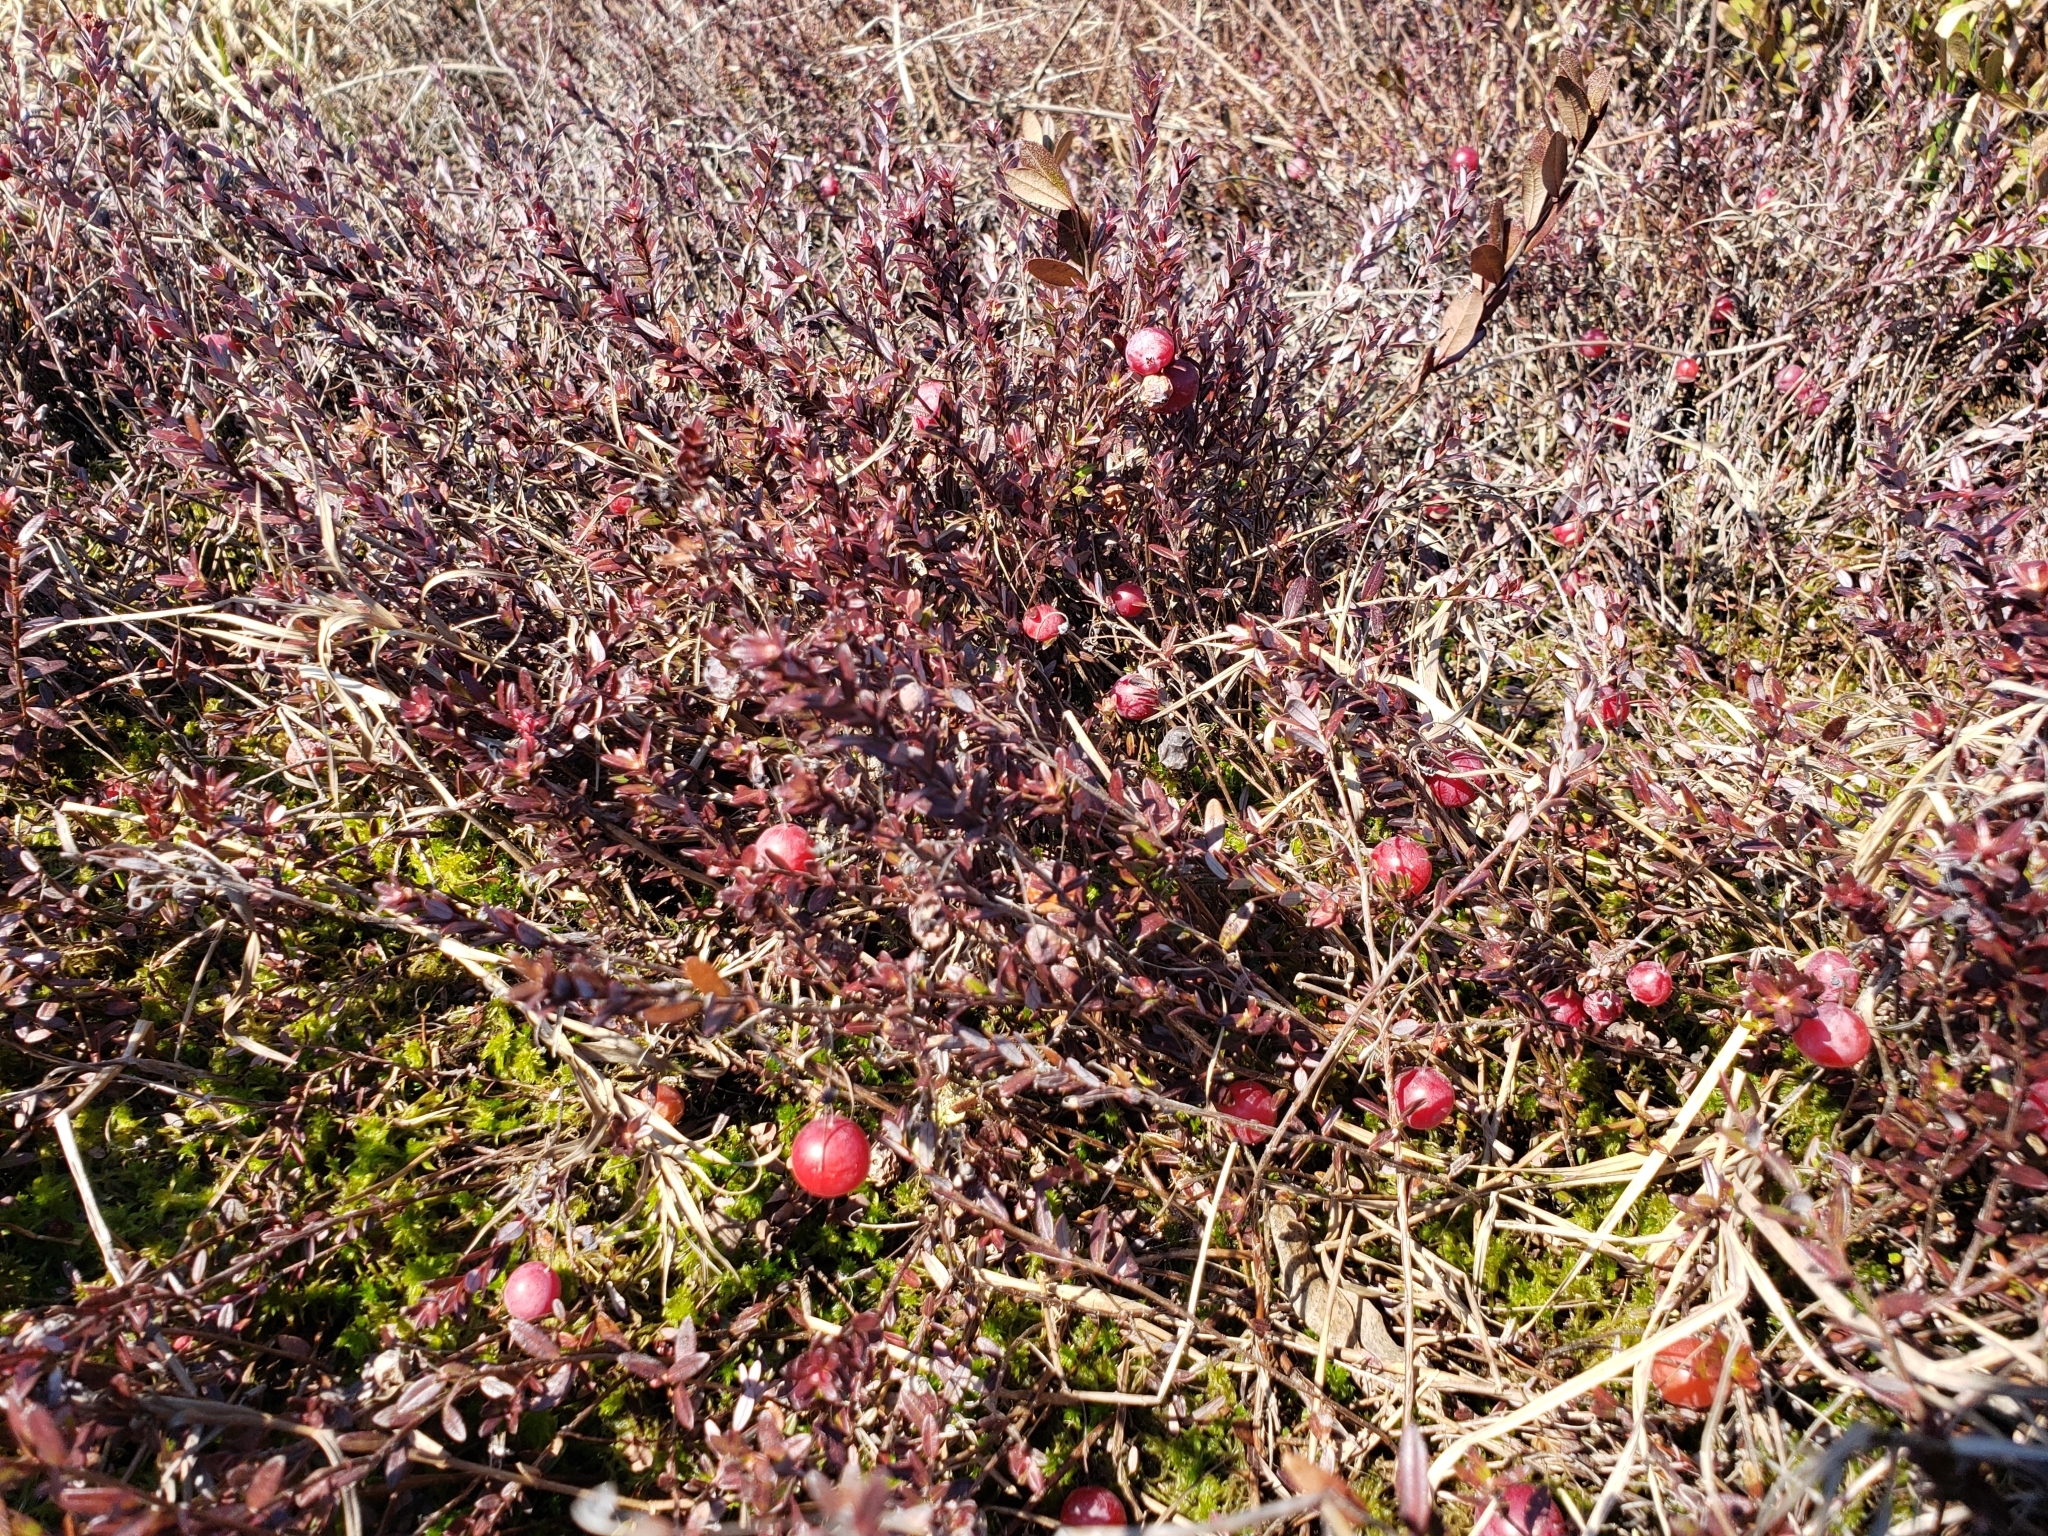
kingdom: Plantae
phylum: Tracheophyta
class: Magnoliopsida
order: Ericales
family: Ericaceae
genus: Vaccinium
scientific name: Vaccinium macrocarpon
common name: American cranberry
